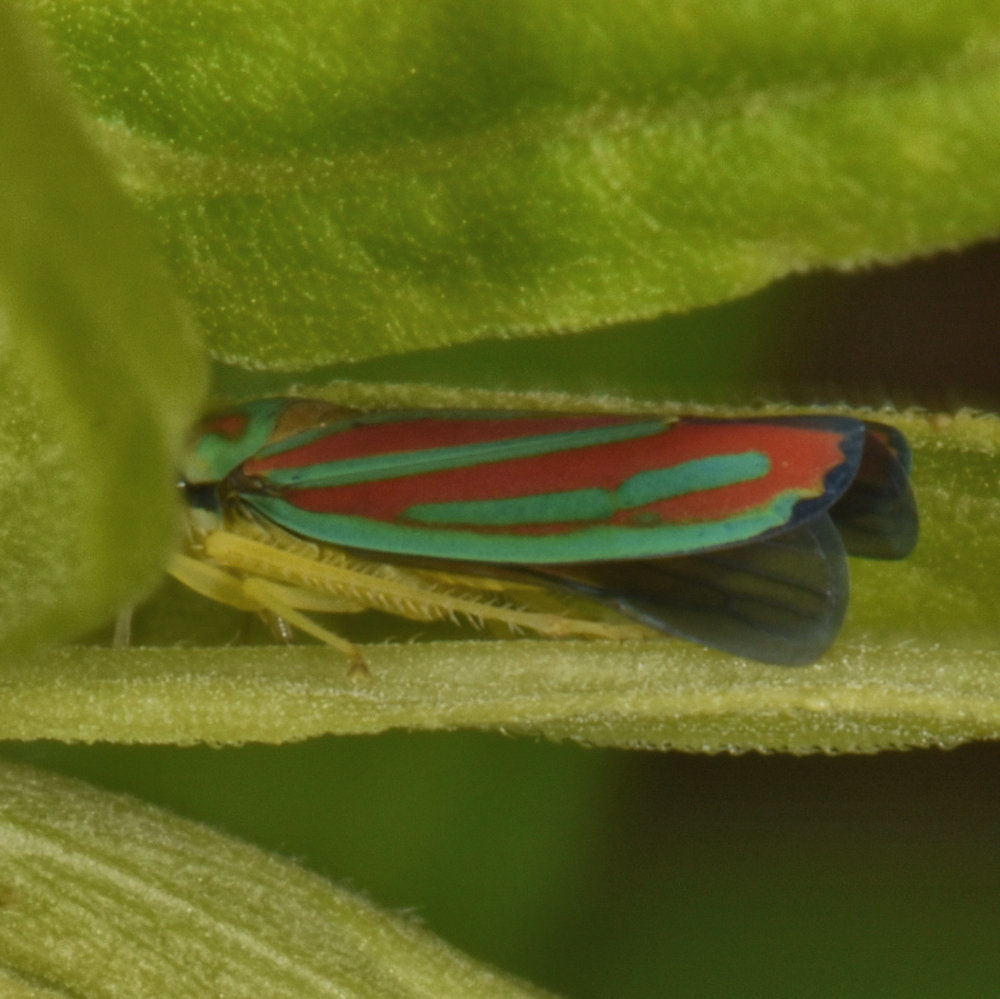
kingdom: Animalia
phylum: Arthropoda
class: Insecta
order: Hemiptera
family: Cicadellidae
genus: Graphocephala
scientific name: Graphocephala coccinea
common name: Candy-striped leafhopper
